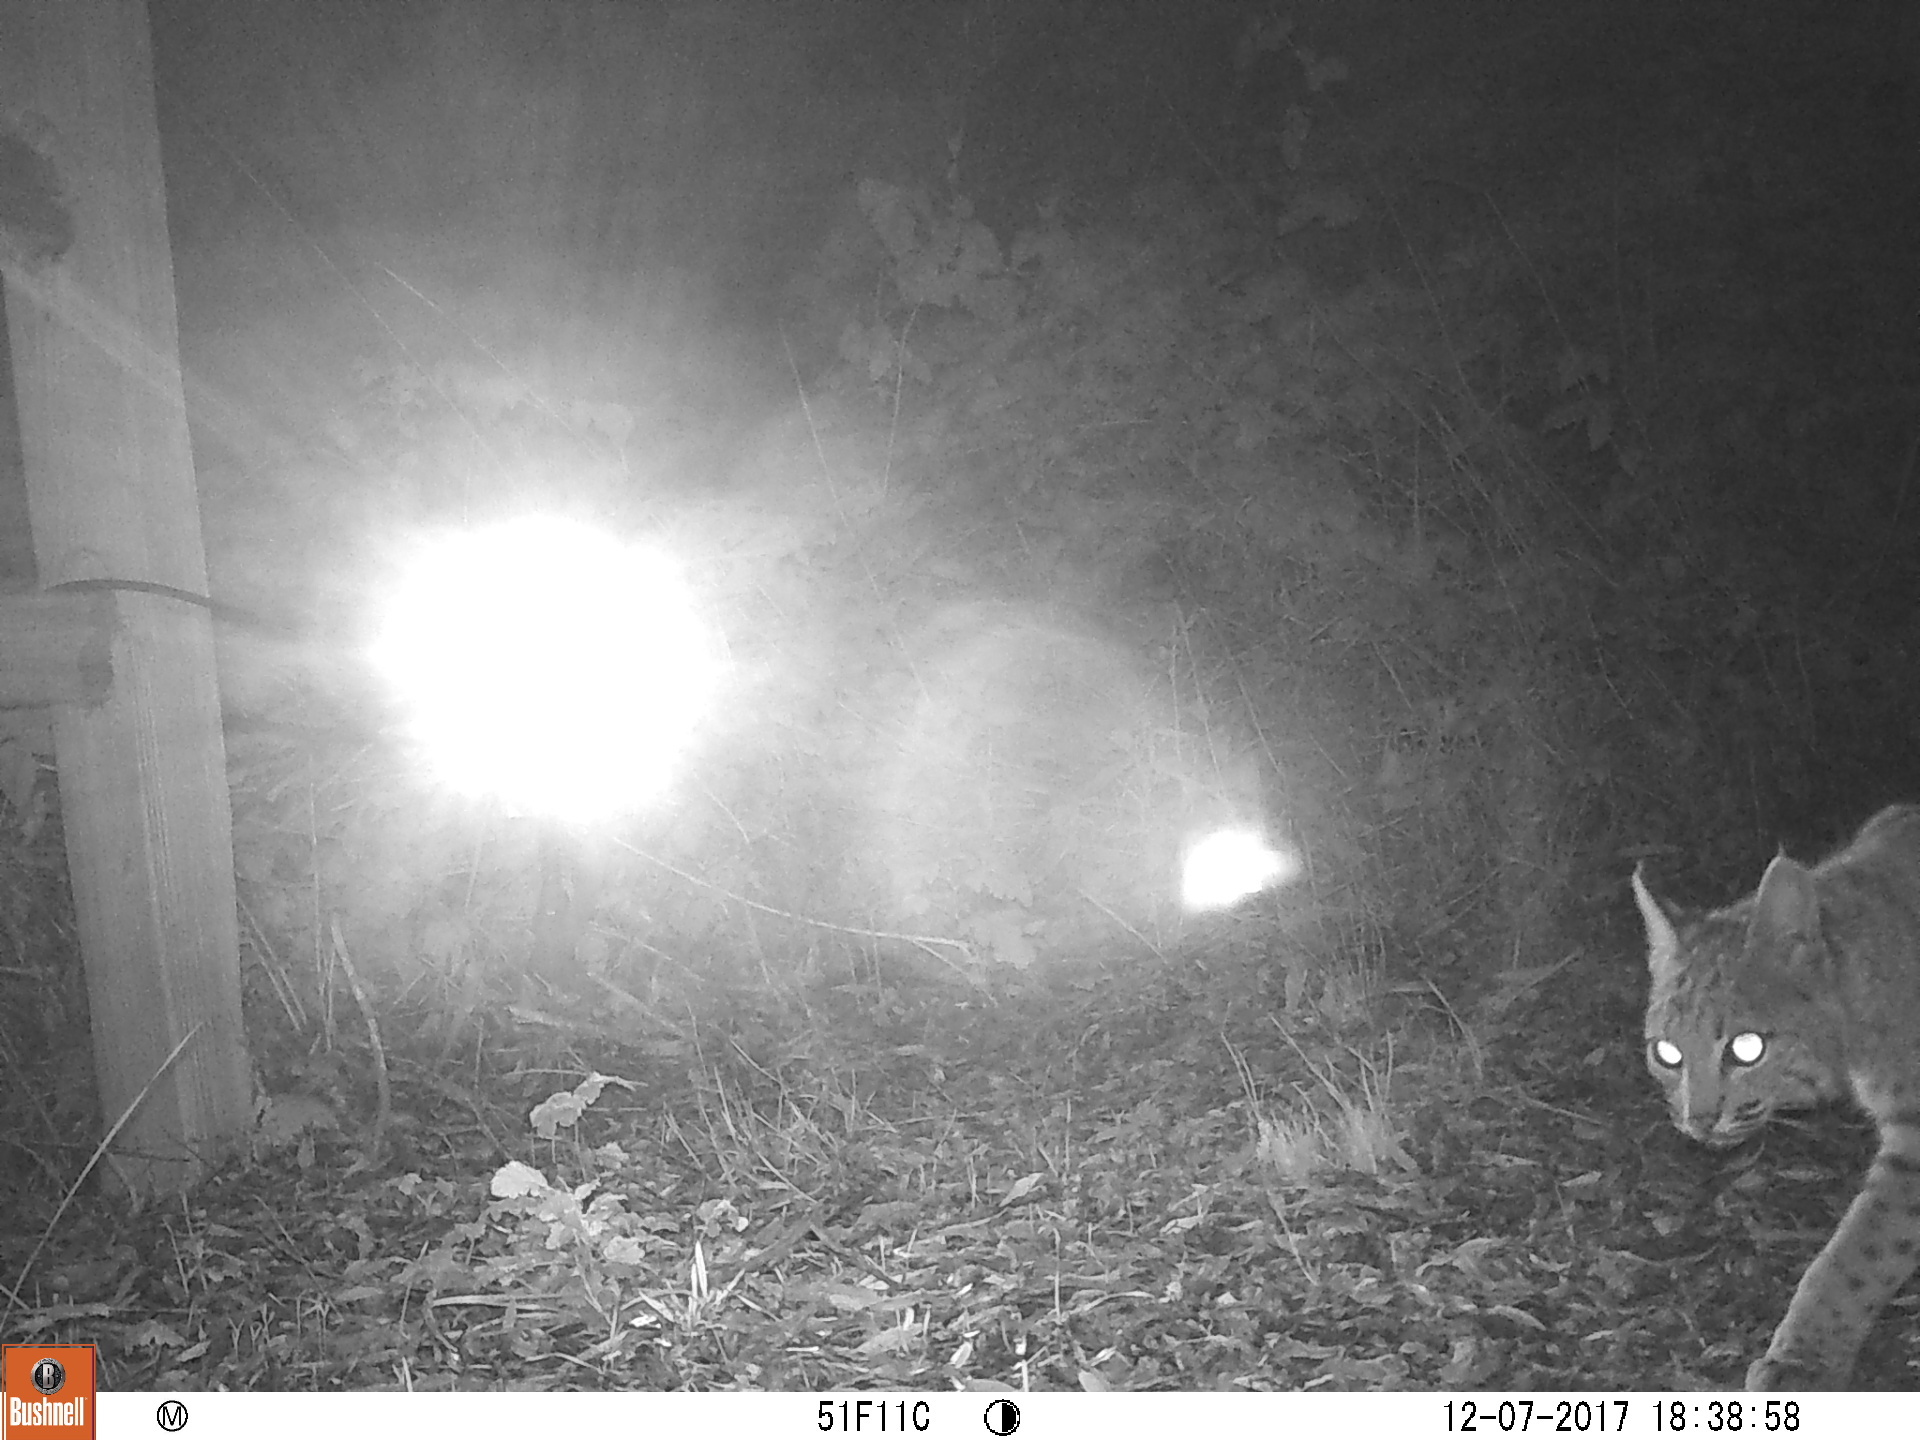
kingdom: Animalia
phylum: Chordata
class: Mammalia
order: Carnivora
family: Felidae
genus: Lynx
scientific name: Lynx rufus
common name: Bobcat
